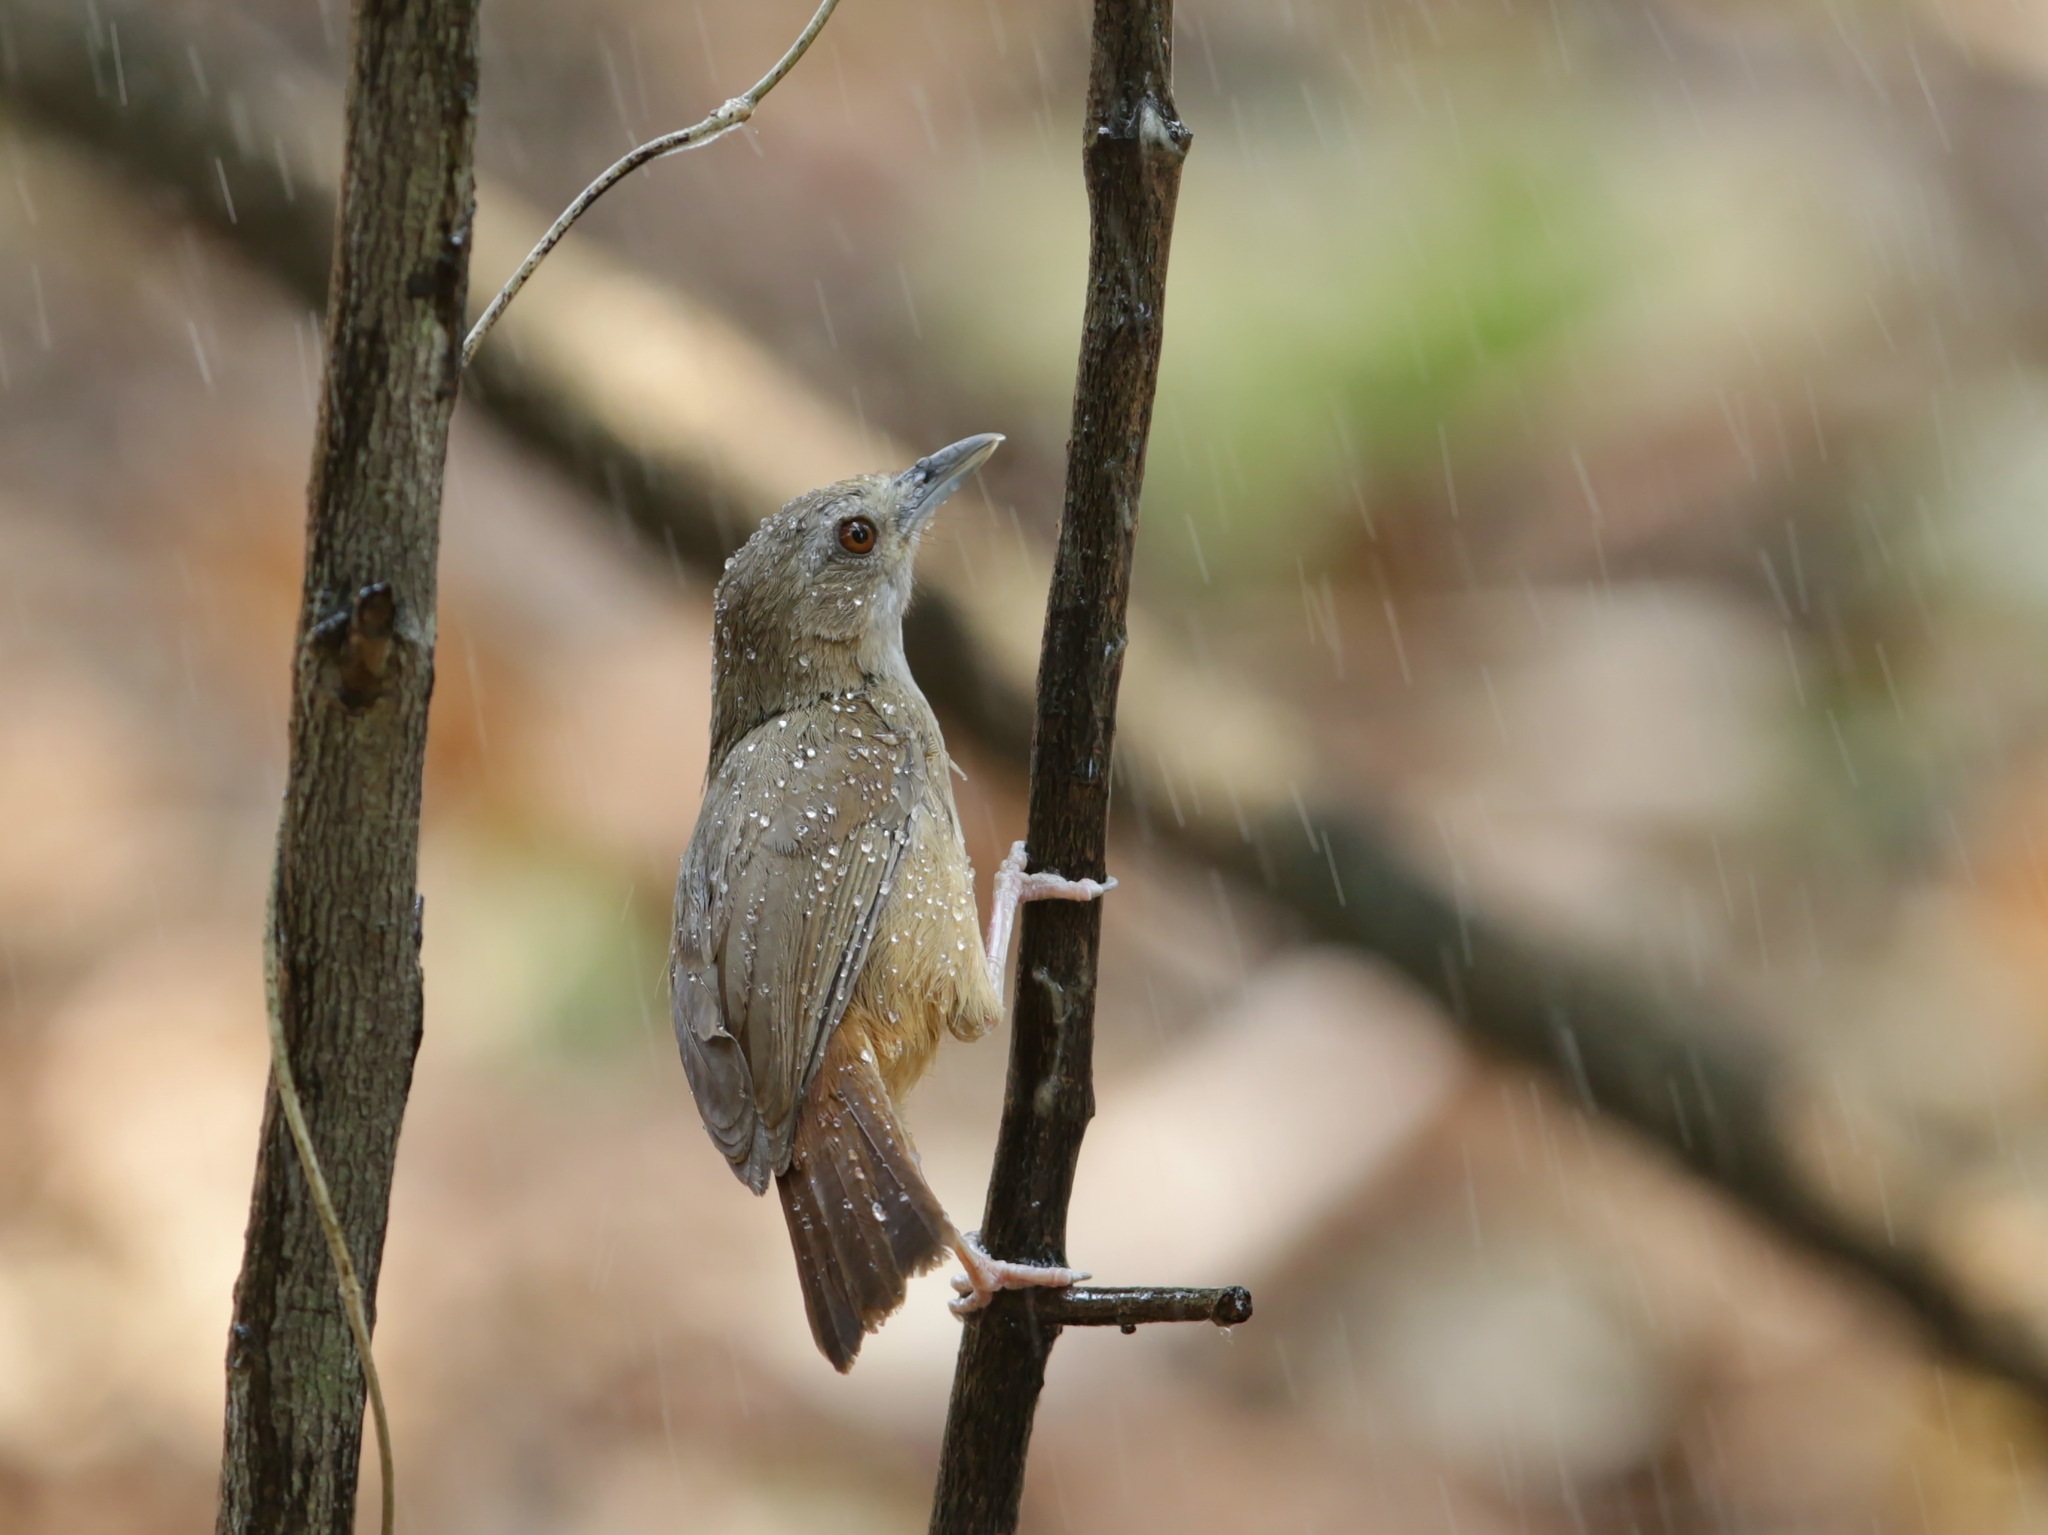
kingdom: Animalia
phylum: Chordata
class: Aves
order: Passeriformes
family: Pellorneidae
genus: Malacocincla
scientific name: Malacocincla abbotti
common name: Abbott's babbler
